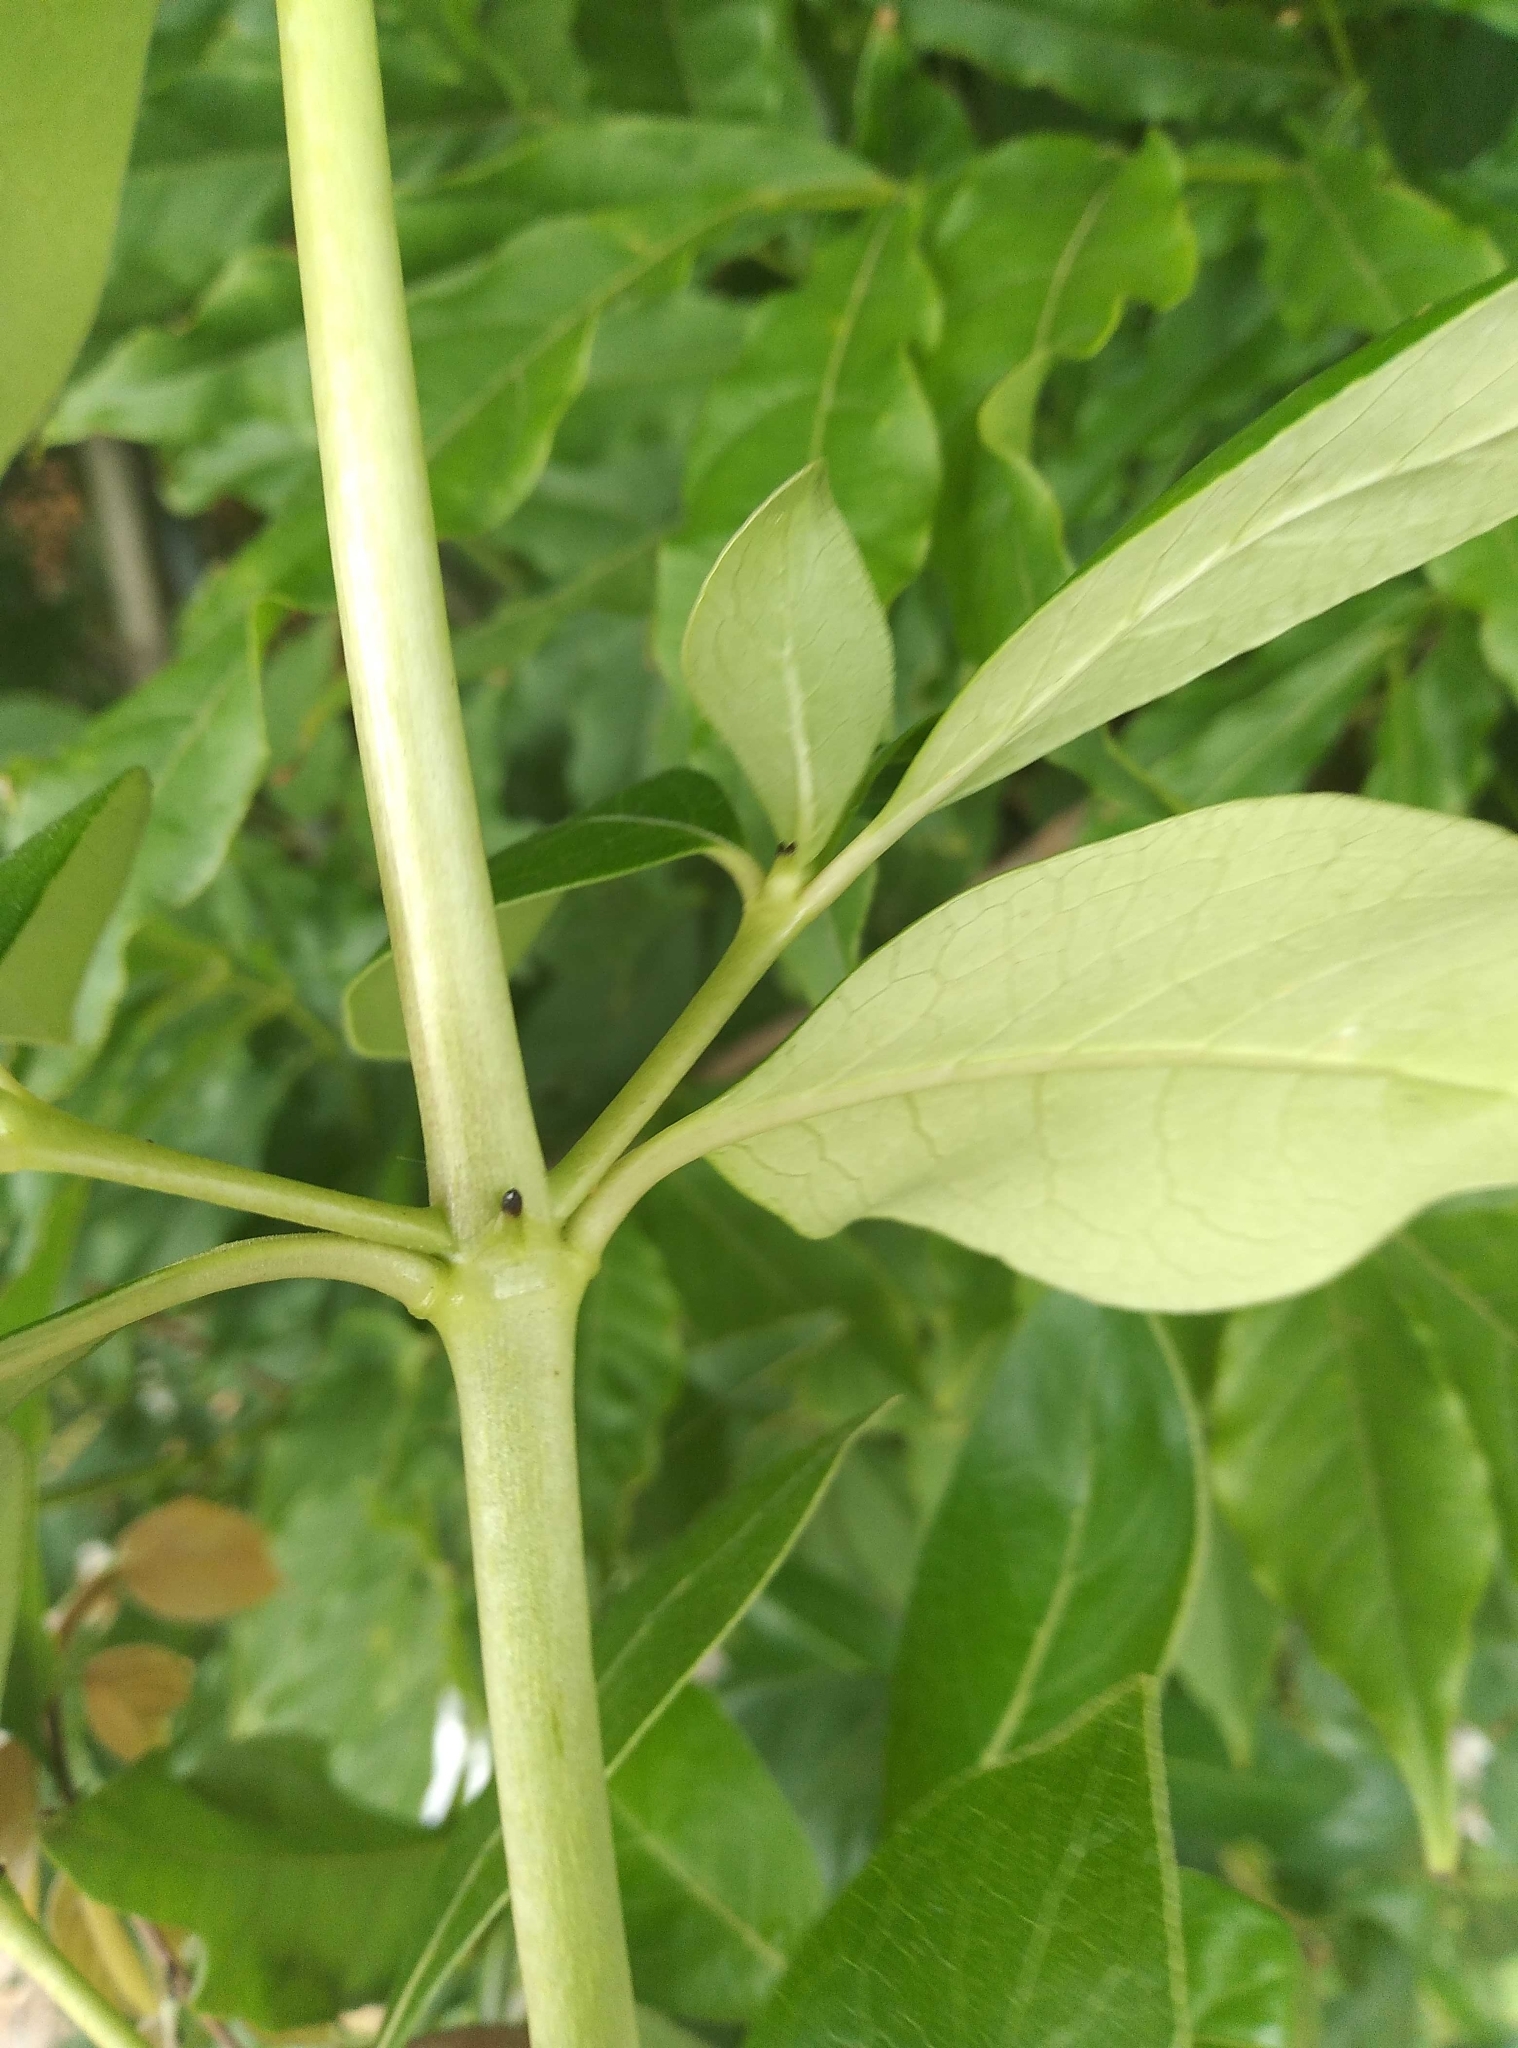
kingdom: Plantae
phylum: Tracheophyta
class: Magnoliopsida
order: Gentianales
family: Rubiaceae
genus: Coprosma
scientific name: Coprosma robusta
